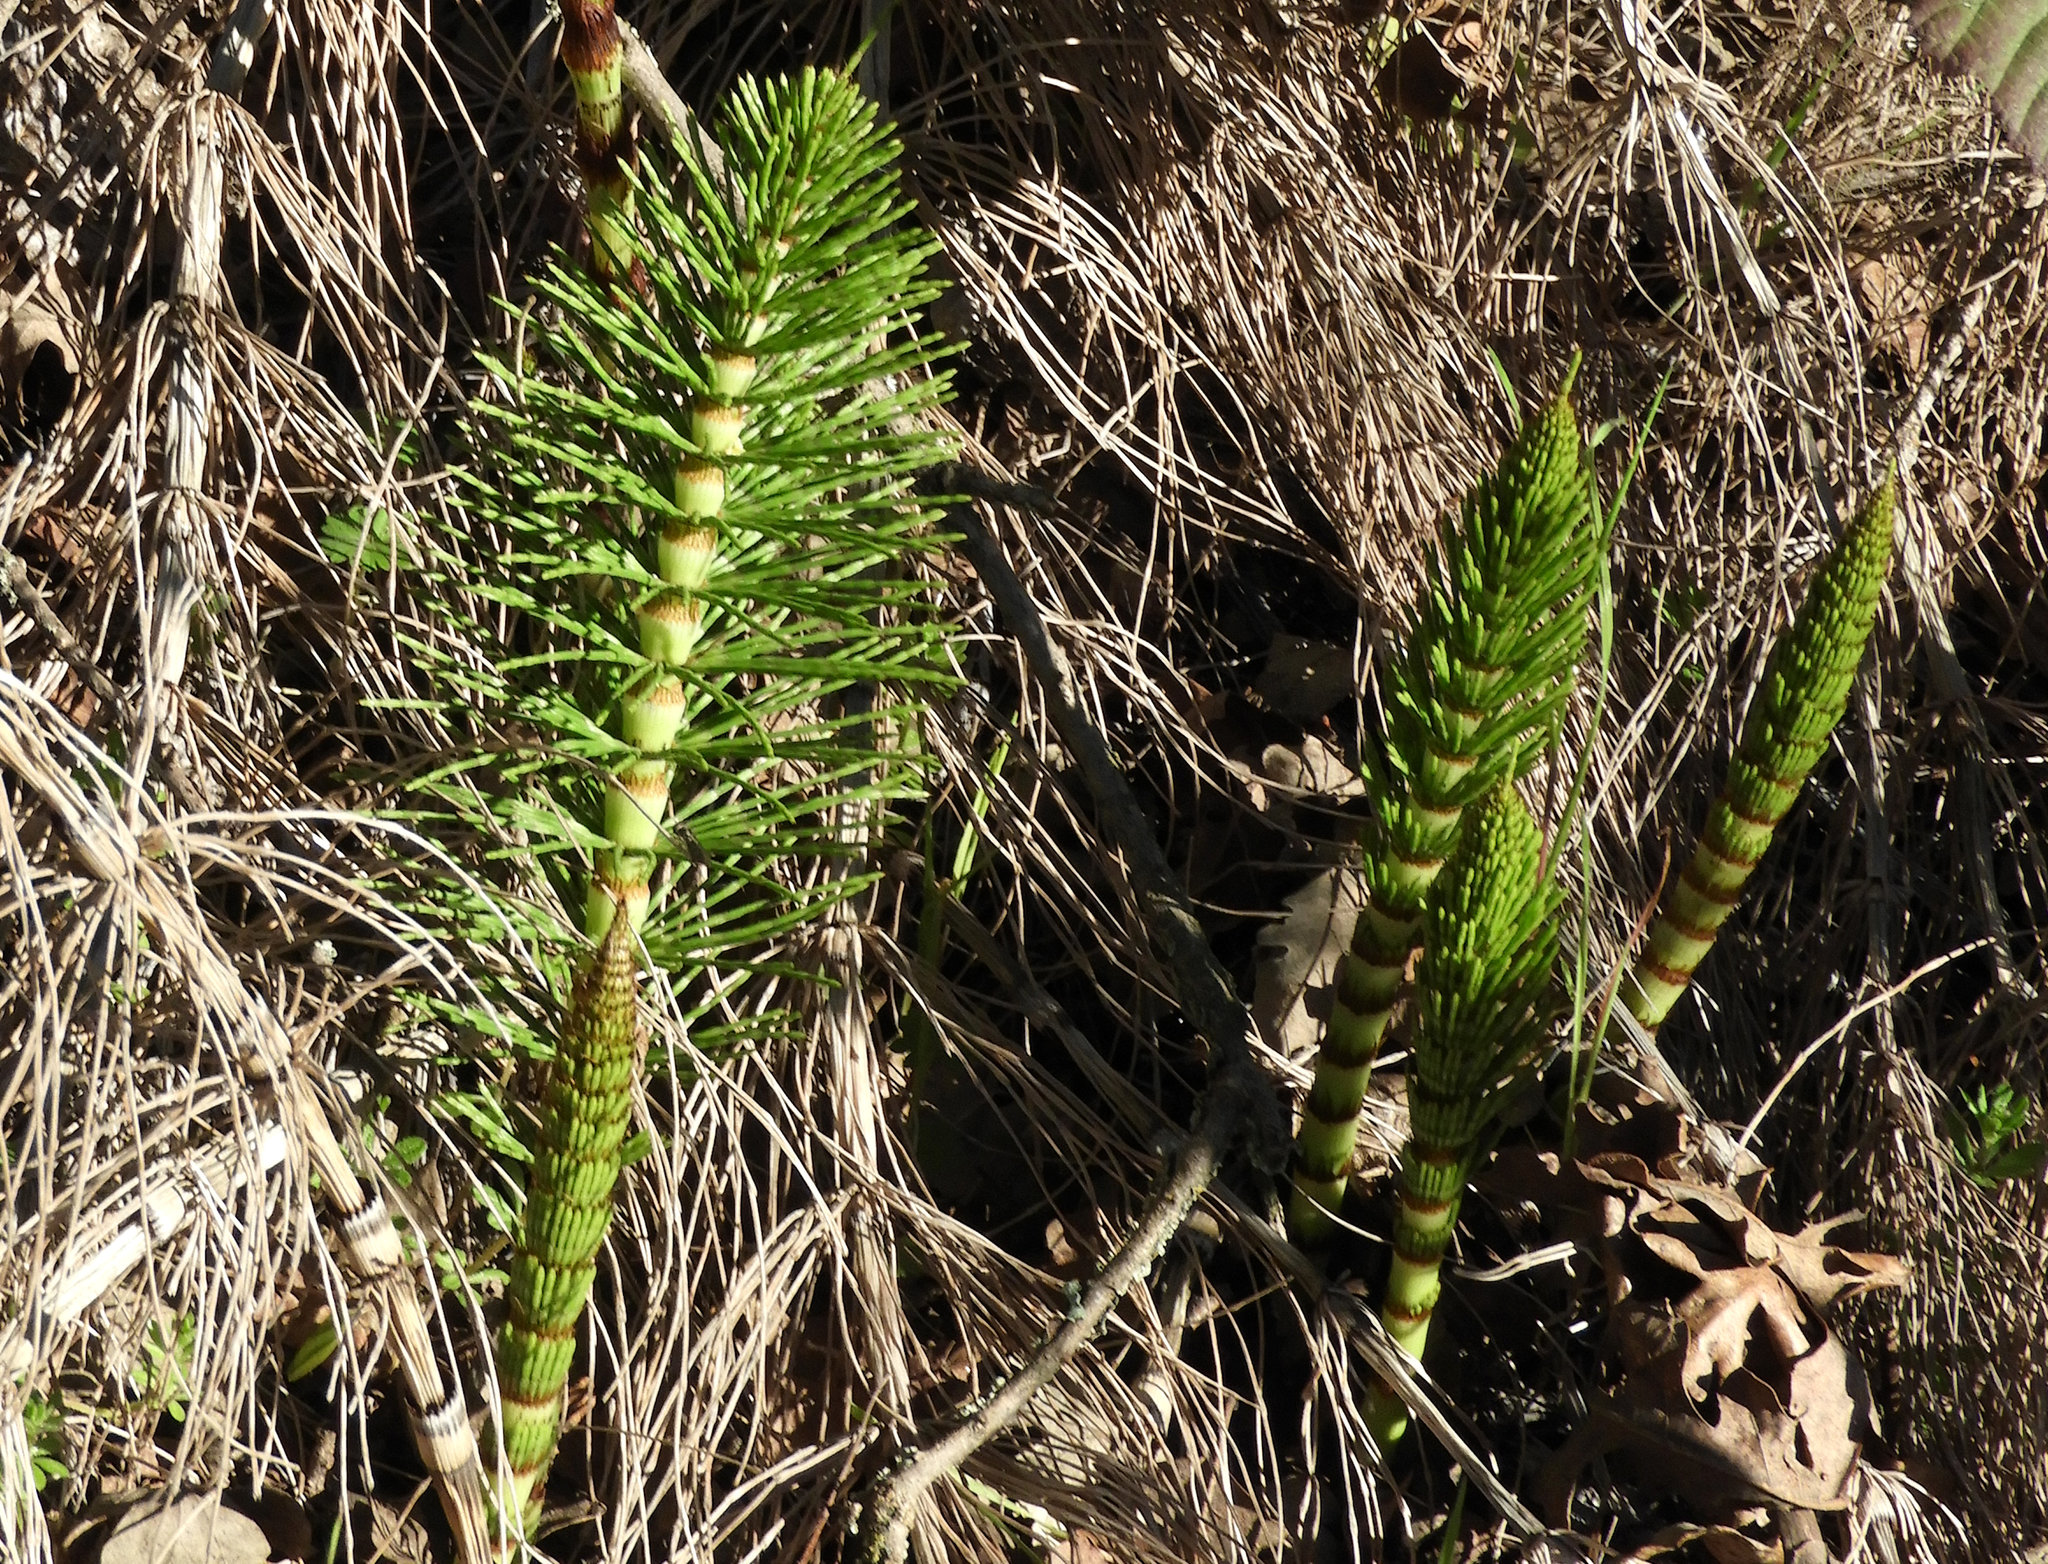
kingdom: Plantae
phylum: Tracheophyta
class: Polypodiopsida
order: Equisetales
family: Equisetaceae
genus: Equisetum
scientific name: Equisetum braunii
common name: Braun's horsetail
